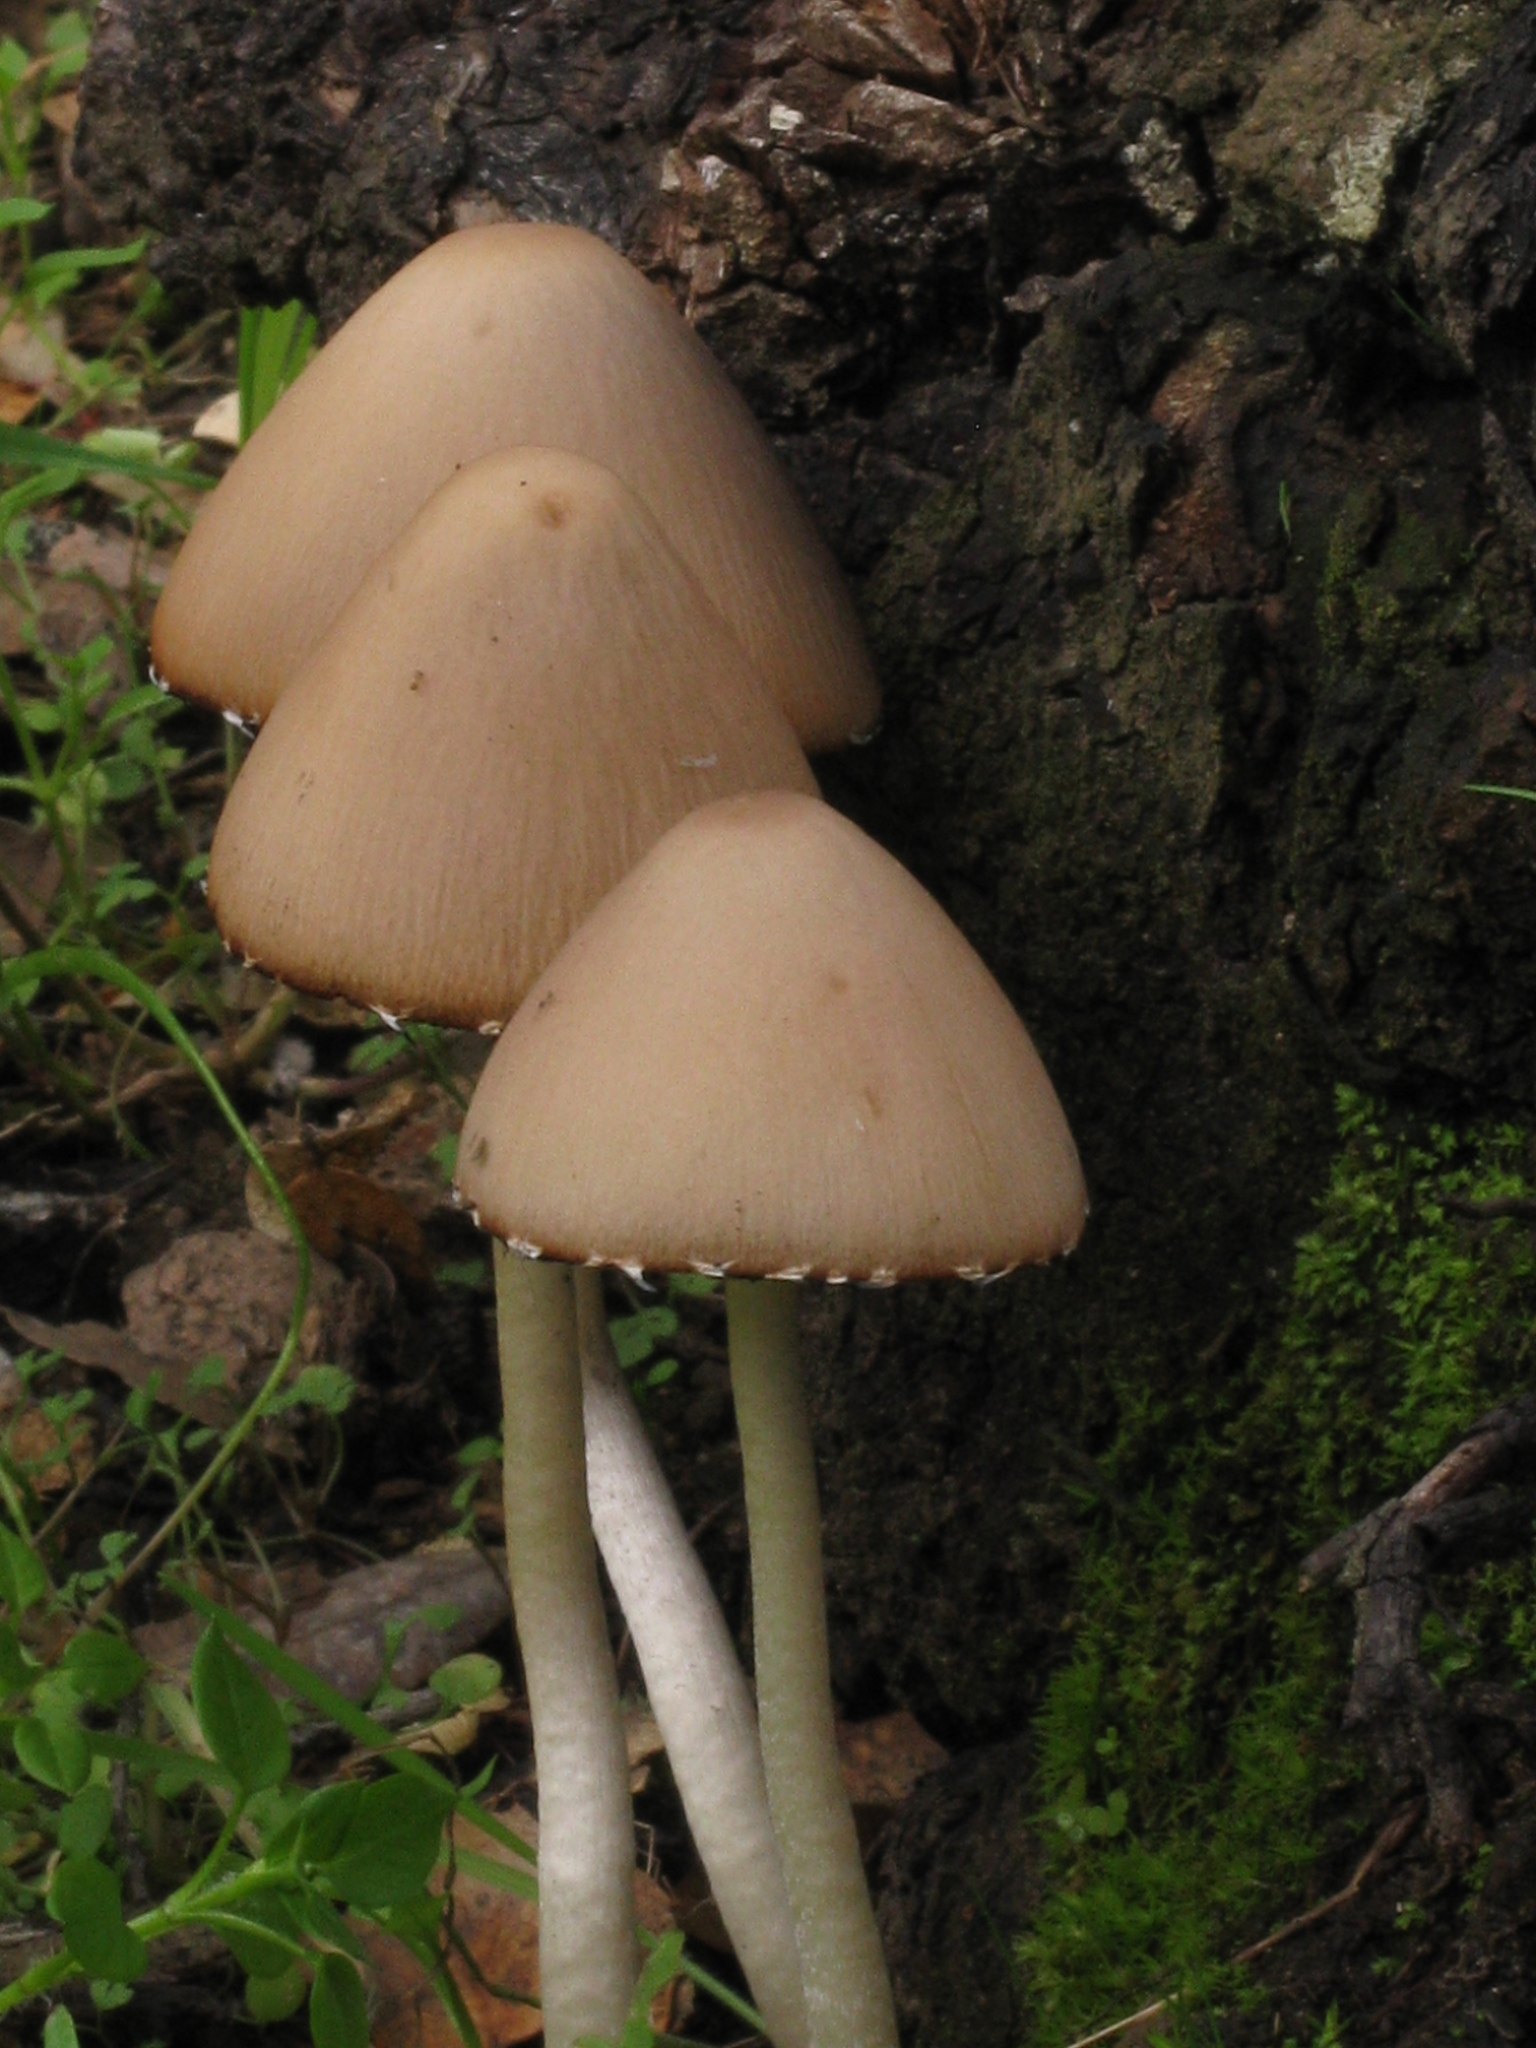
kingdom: Fungi
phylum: Basidiomycota
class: Agaricomycetes
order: Agaricales
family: Psathyrellaceae
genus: Psathyrella
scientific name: Psathyrella longipes
